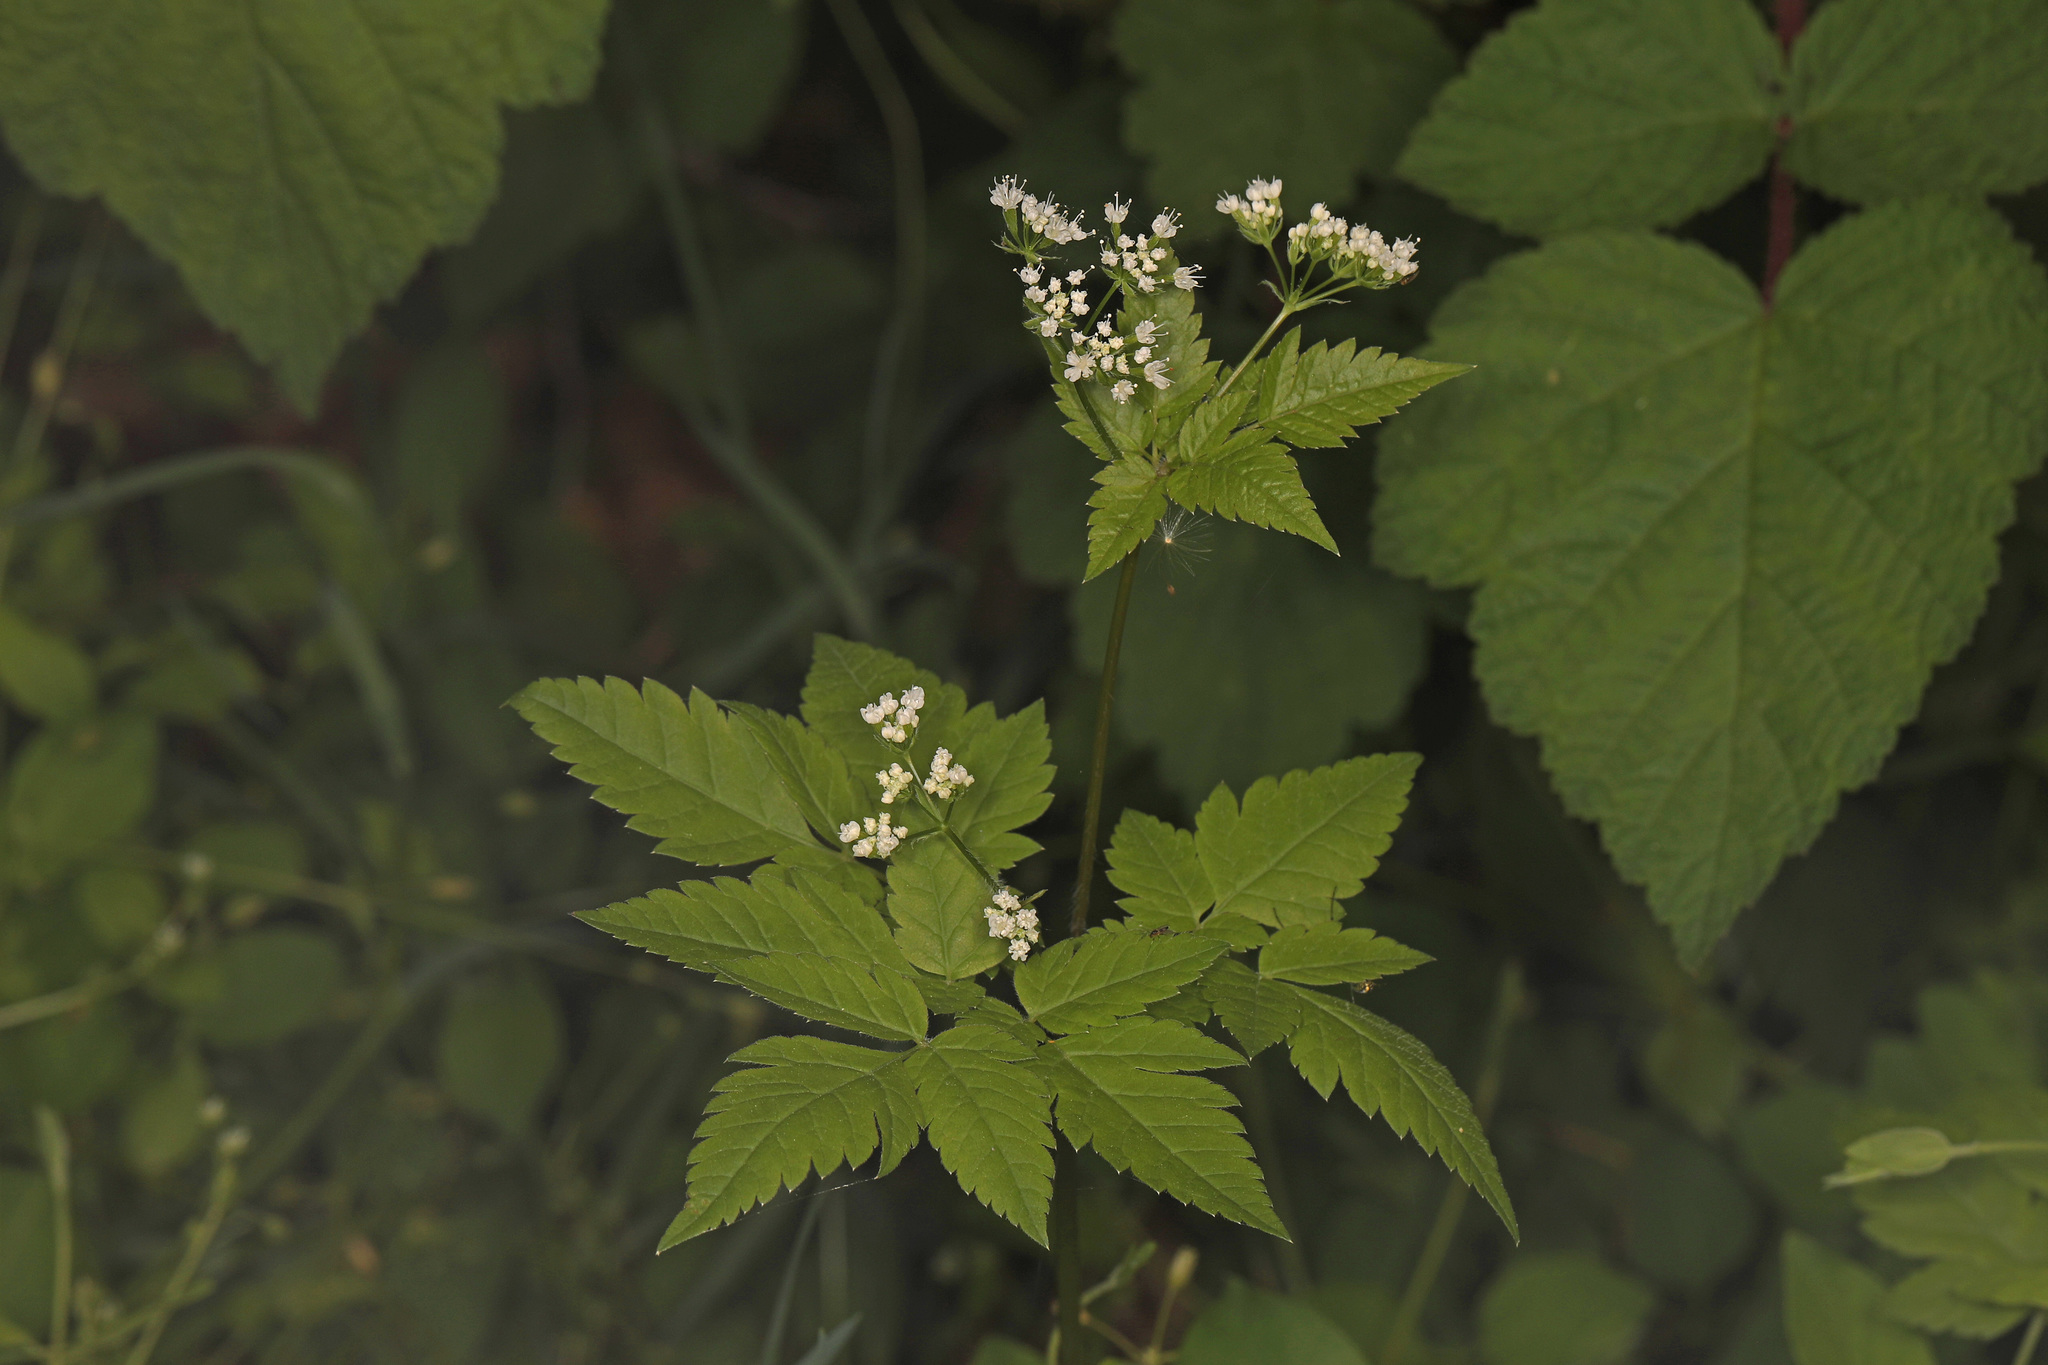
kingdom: Plantae
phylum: Tracheophyta
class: Magnoliopsida
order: Apiales
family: Apiaceae
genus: Osmorhiza
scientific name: Osmorhiza longistylis
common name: Smooth sweet cicely
